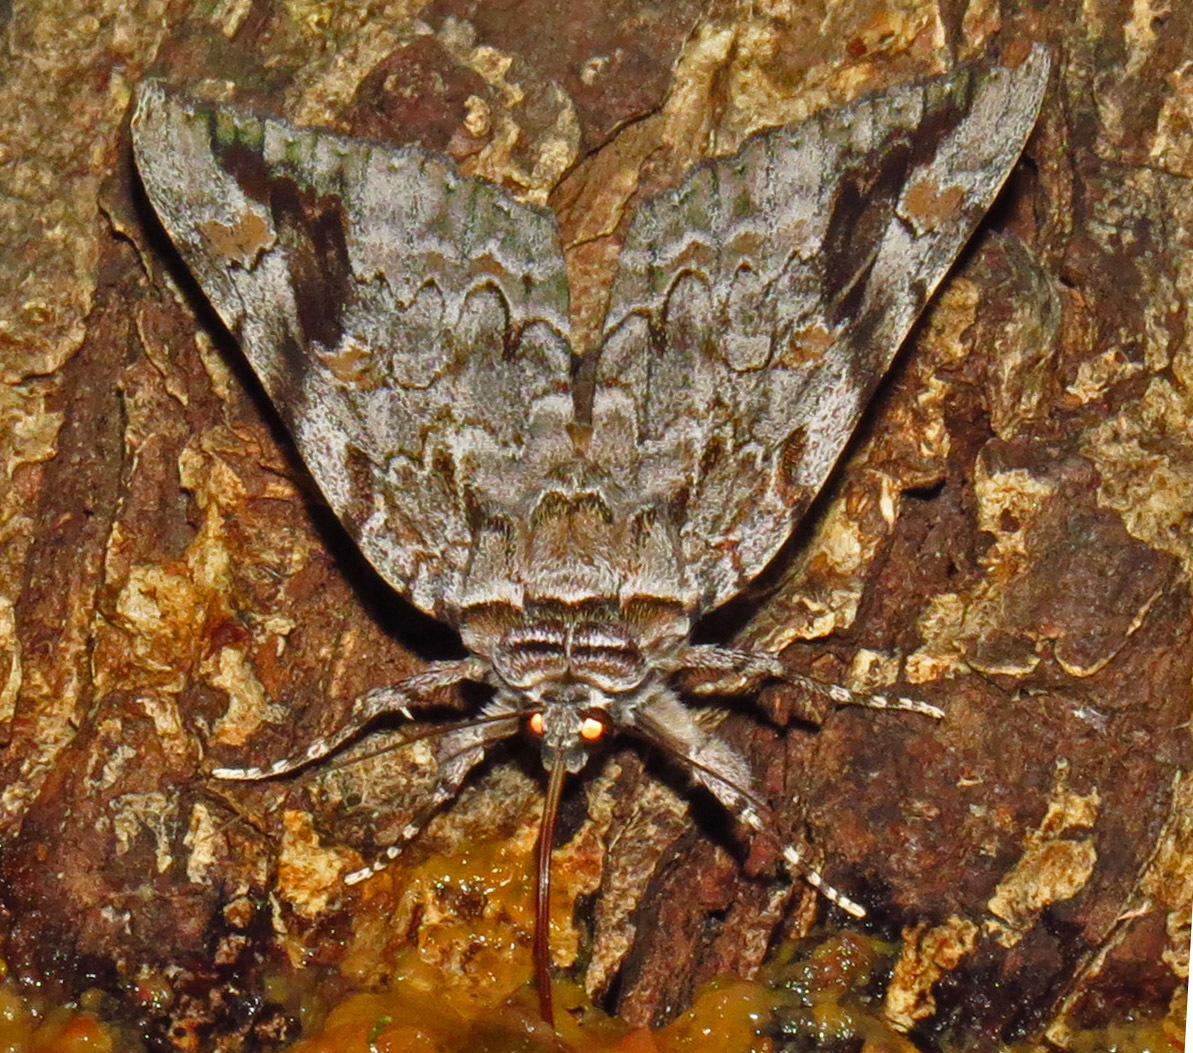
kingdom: Animalia
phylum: Arthropoda
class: Insecta
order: Lepidoptera
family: Erebidae
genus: Catocala
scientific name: Catocala maestosa
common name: Sad underwing
